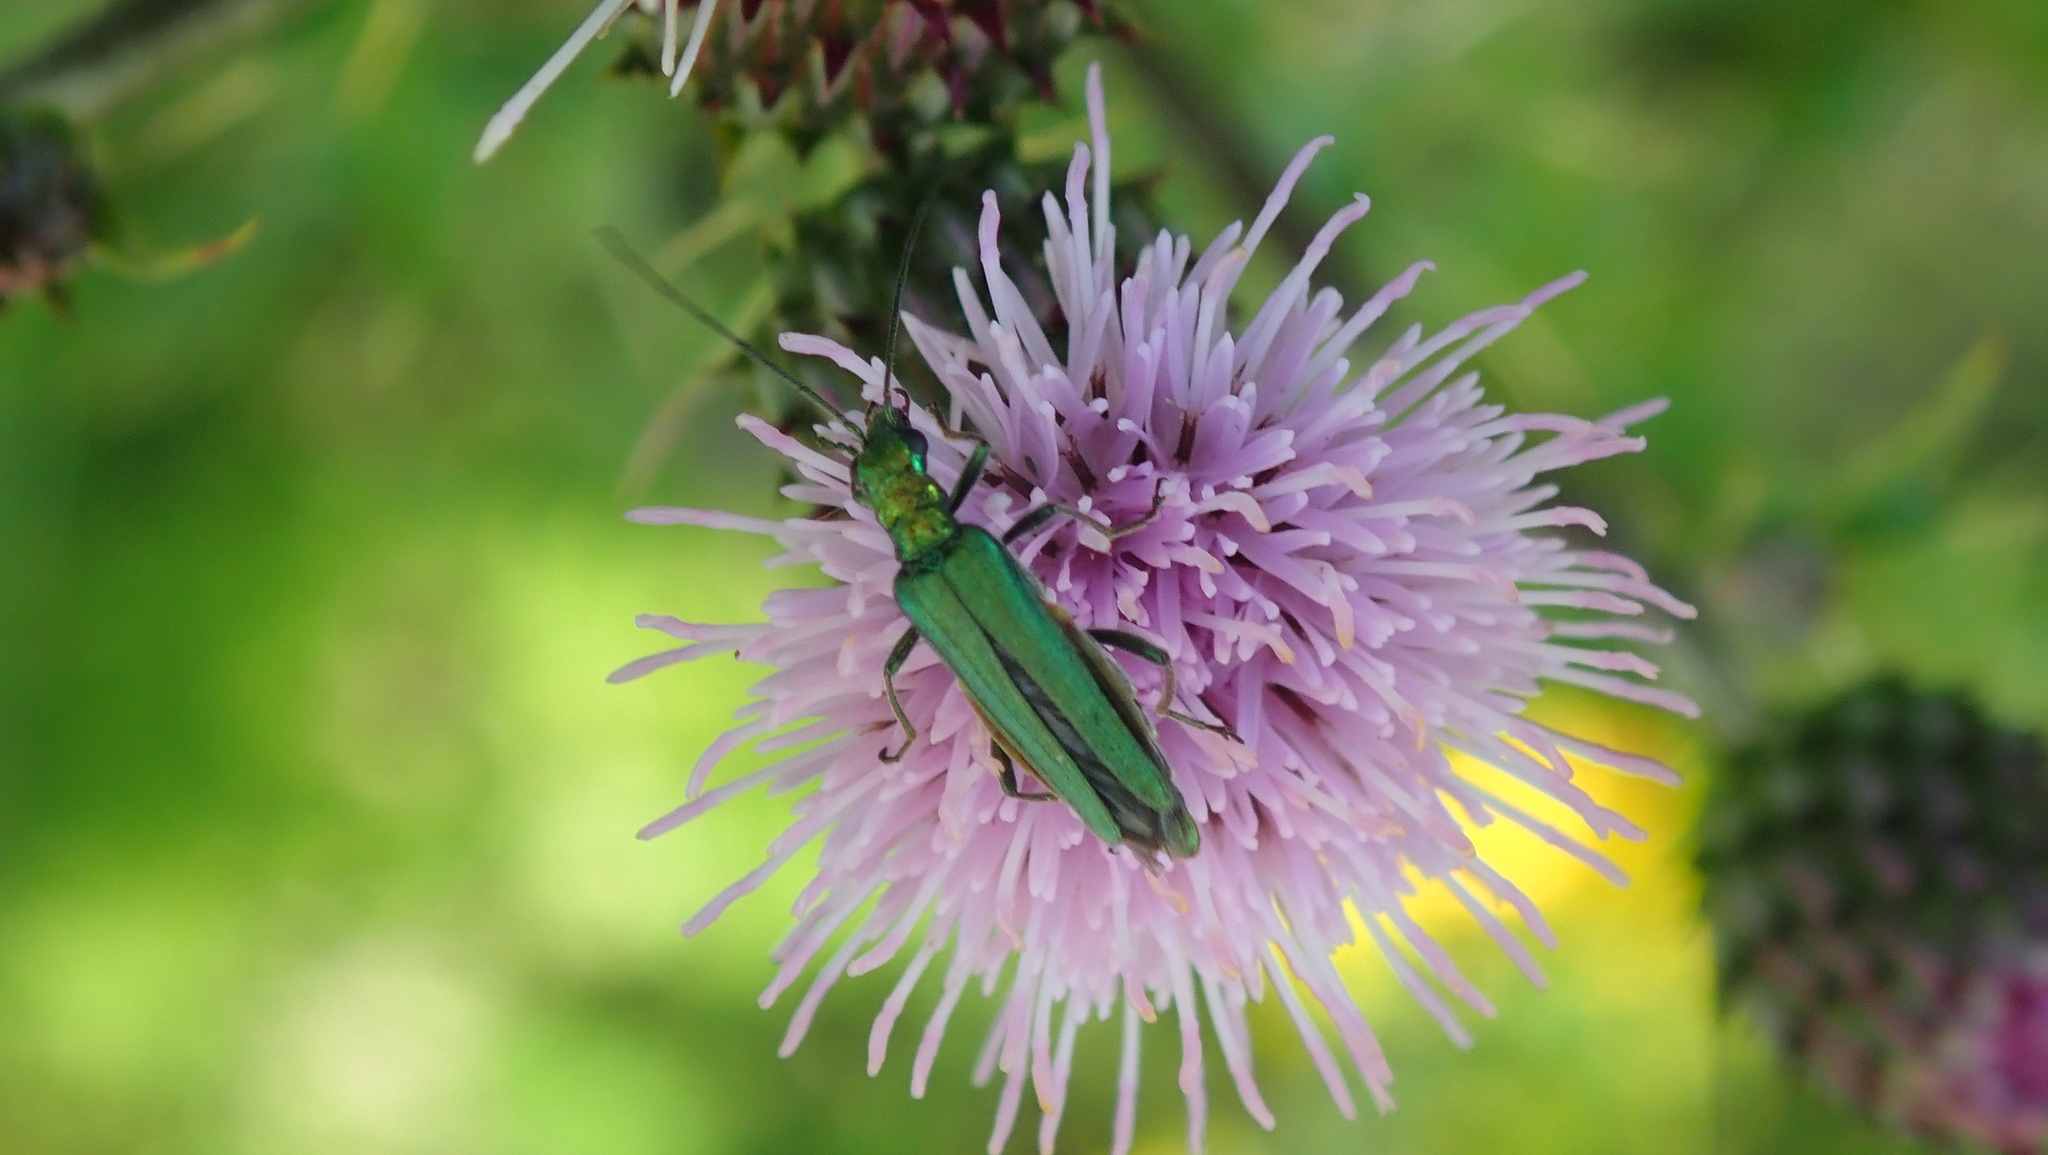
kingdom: Animalia
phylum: Arthropoda
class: Insecta
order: Coleoptera
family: Oedemeridae
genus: Oedemera
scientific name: Oedemera nobilis
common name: Swollen-thighed beetle
